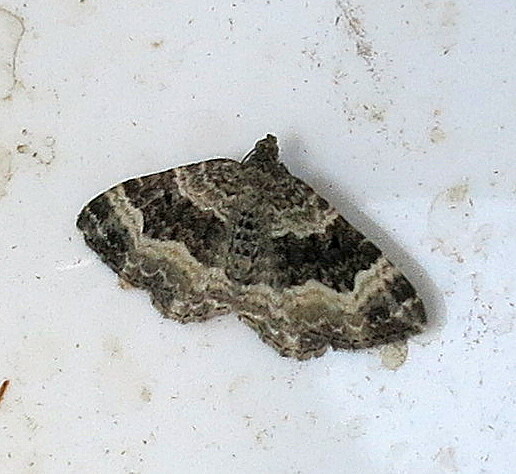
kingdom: Animalia
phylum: Arthropoda
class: Insecta
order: Lepidoptera
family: Geometridae
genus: Epirrhoe
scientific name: Epirrhoe alternata
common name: Common carpet
